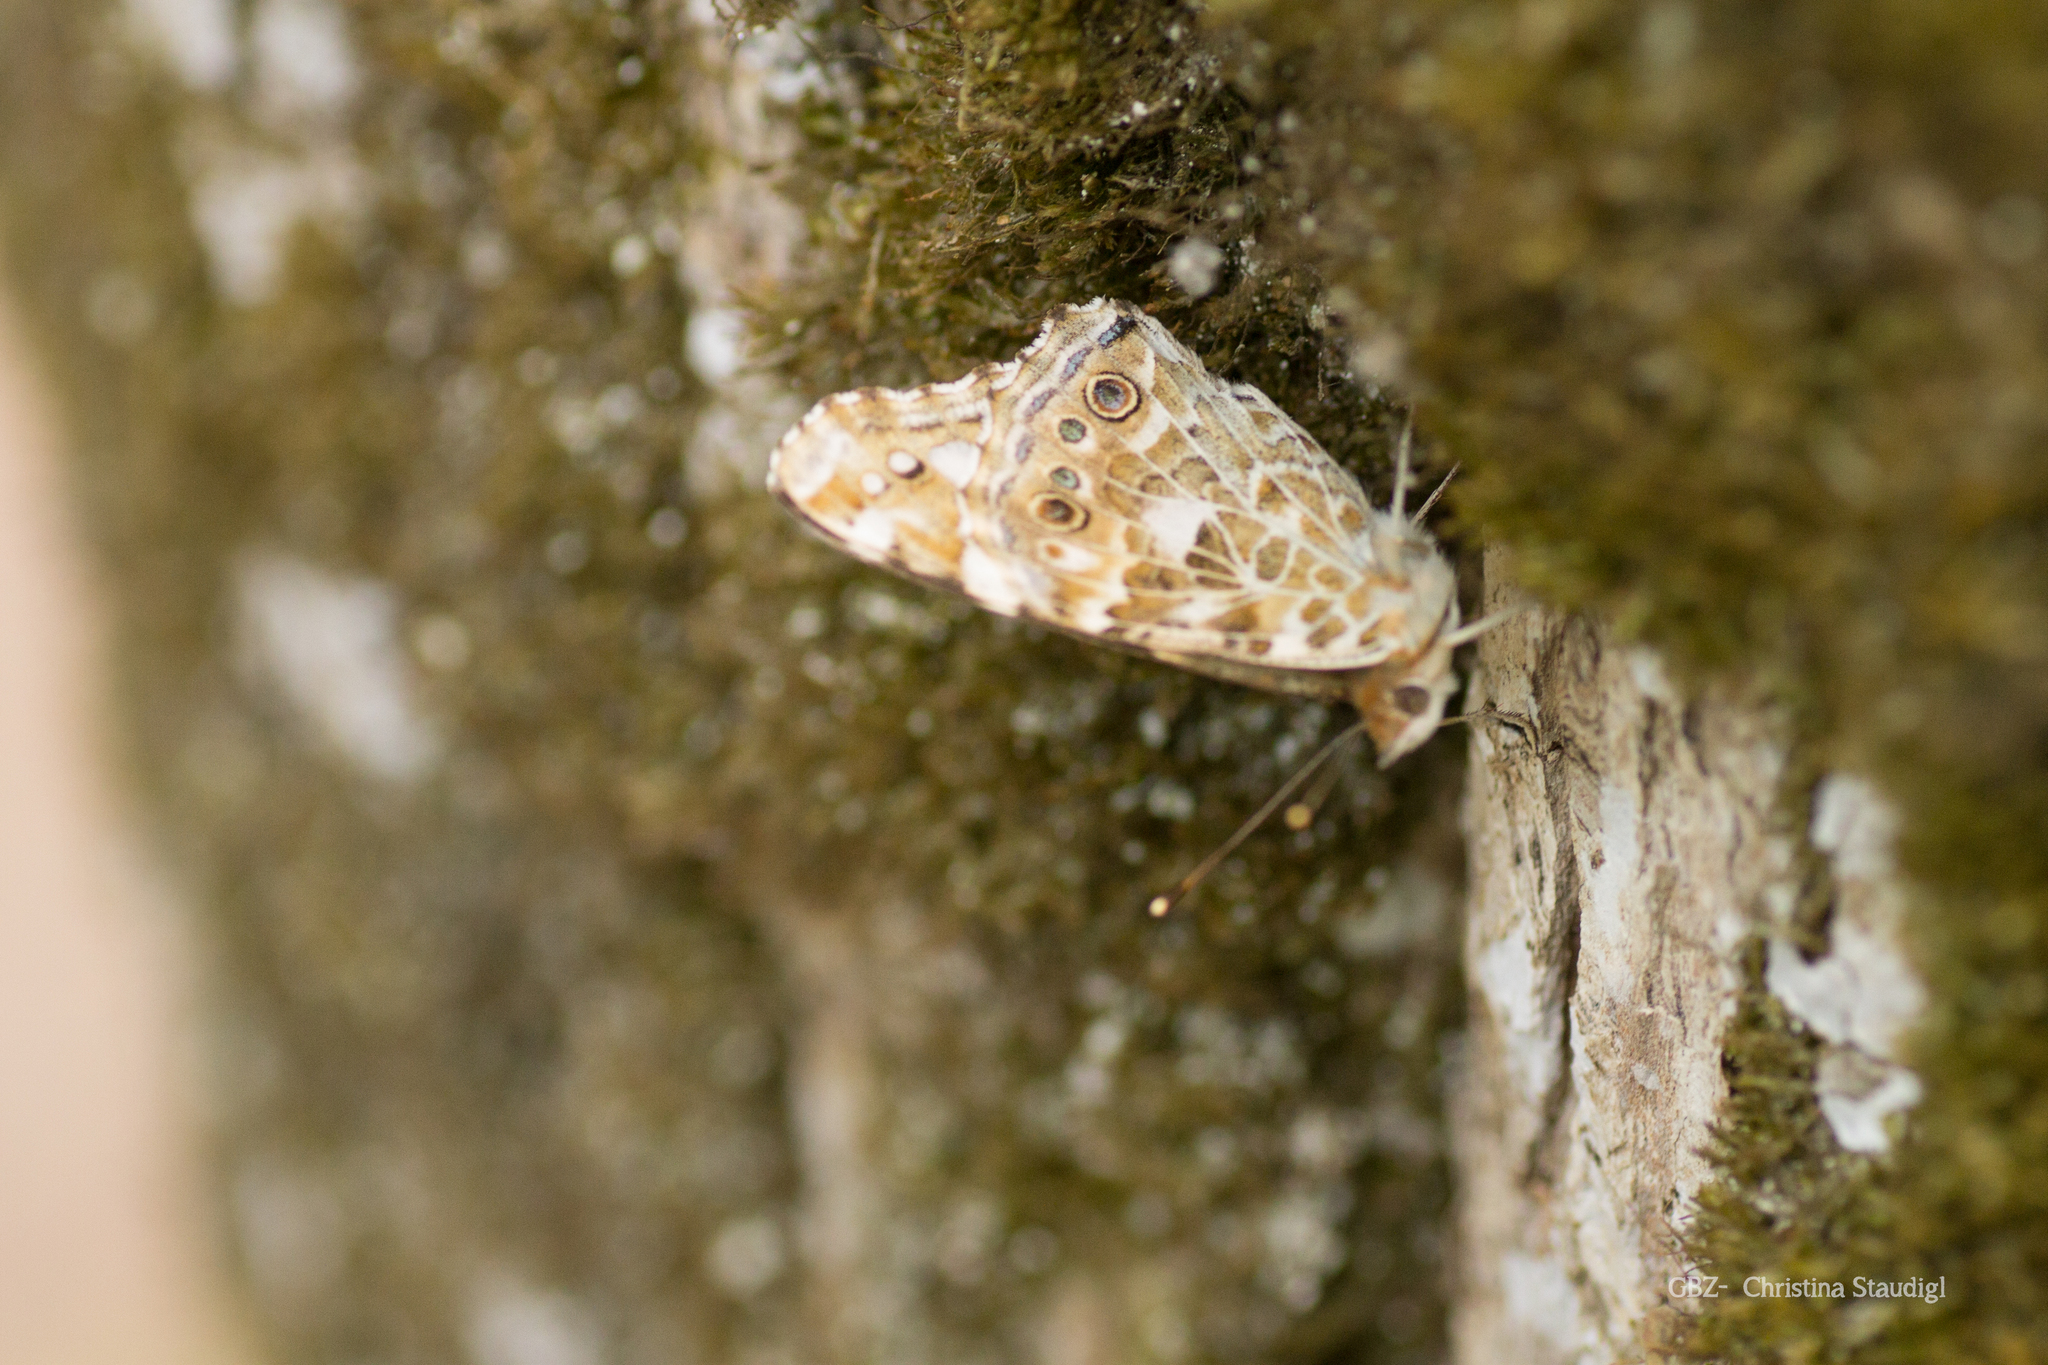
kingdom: Animalia
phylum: Arthropoda
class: Insecta
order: Lepidoptera
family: Nymphalidae
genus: Vanessa
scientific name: Vanessa cardui
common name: Painted lady
